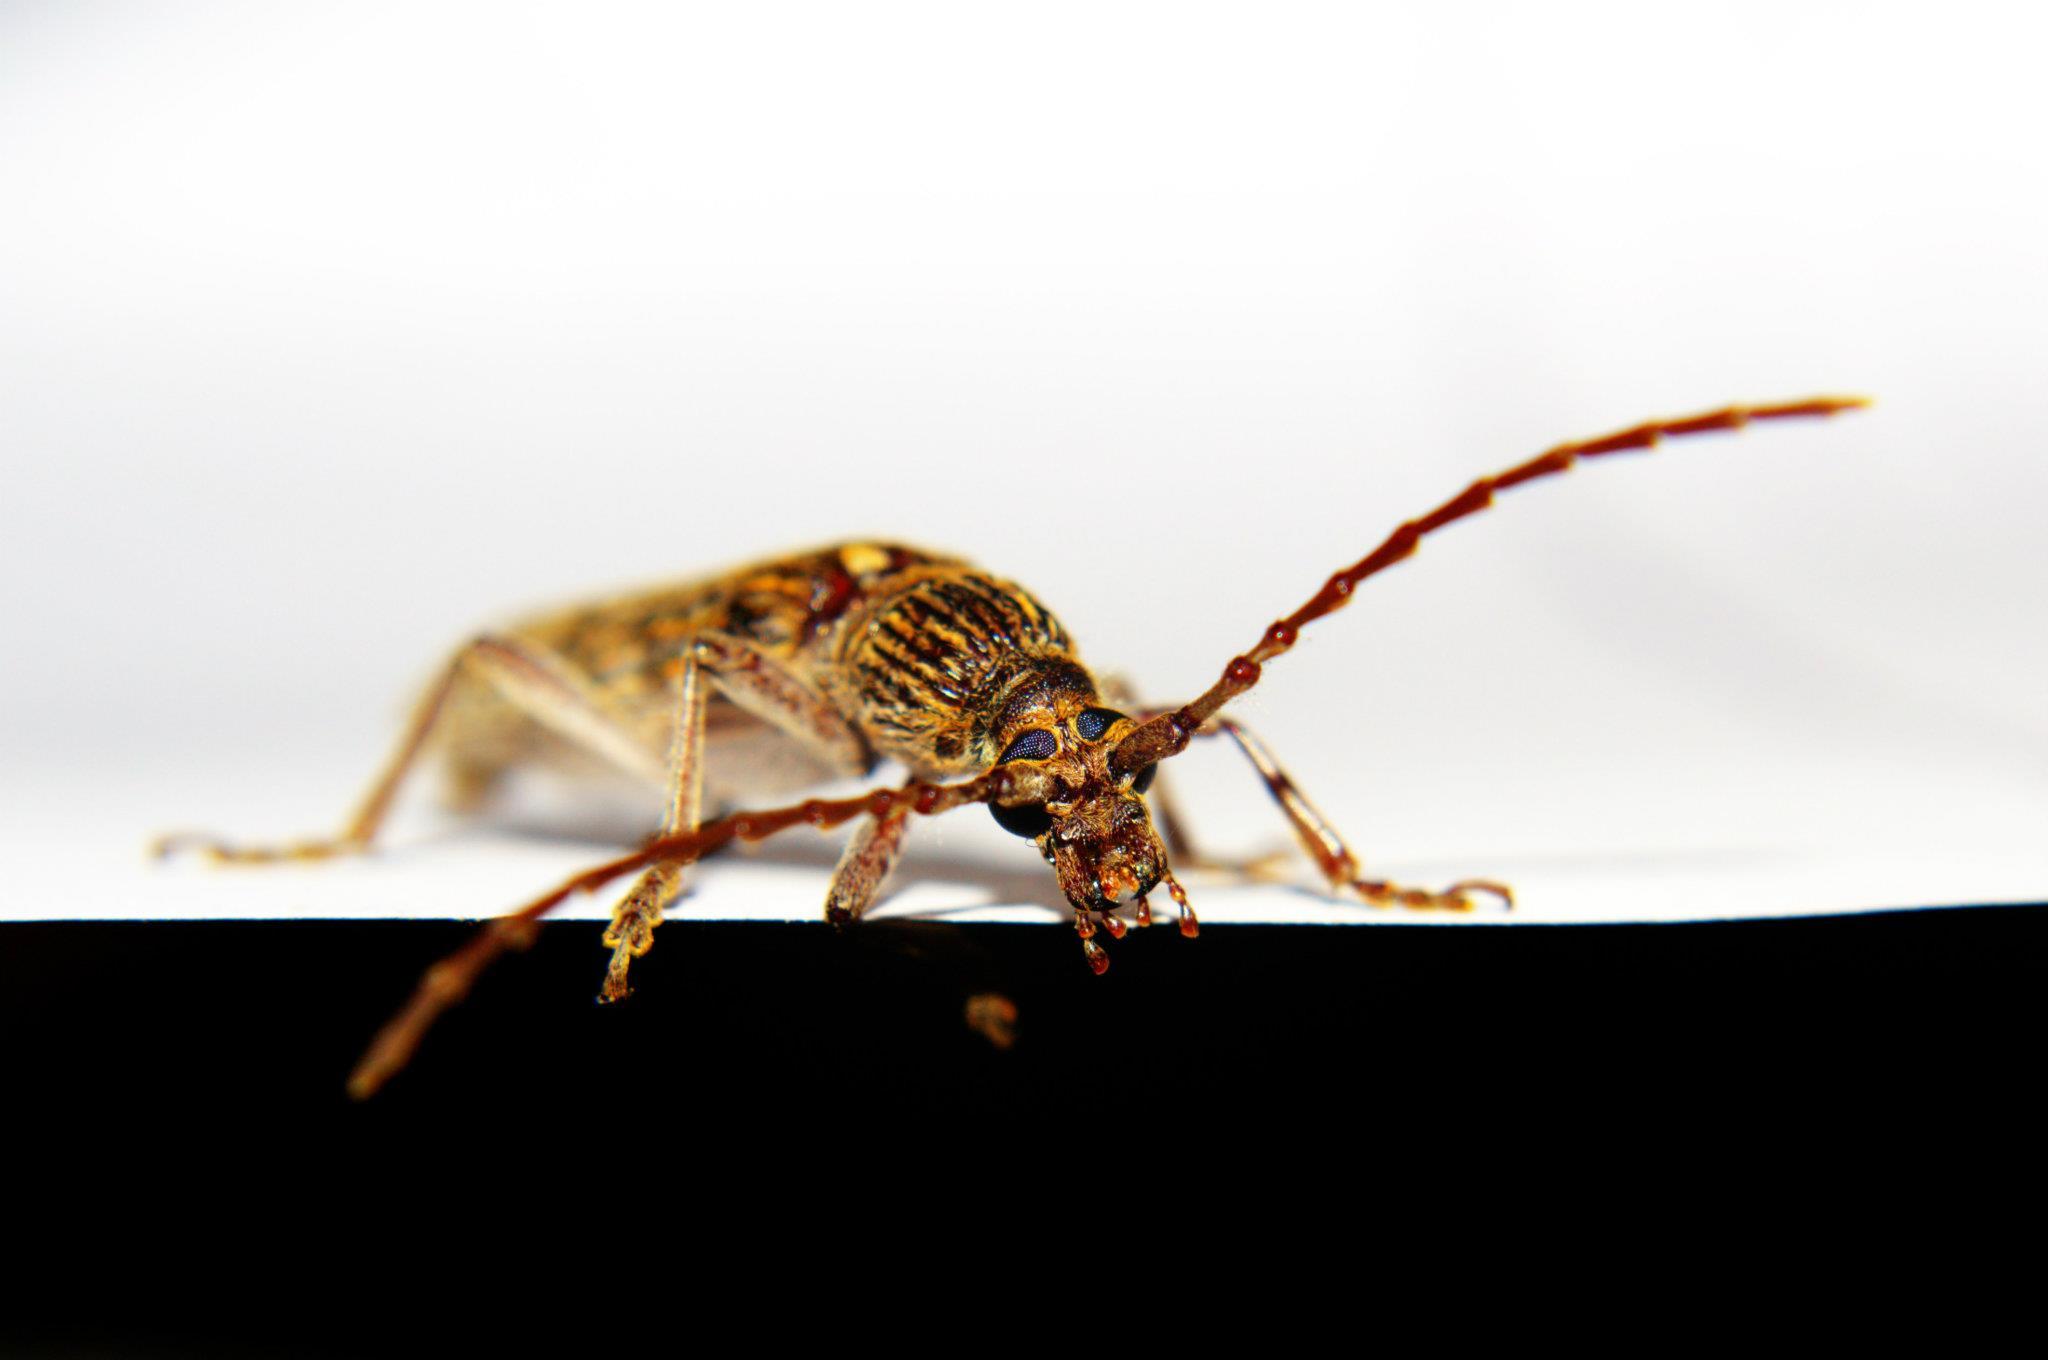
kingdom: Animalia
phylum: Arthropoda
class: Insecta
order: Coleoptera
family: Cerambycidae
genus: Rhytidodera
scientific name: Rhytidodera bowringii
